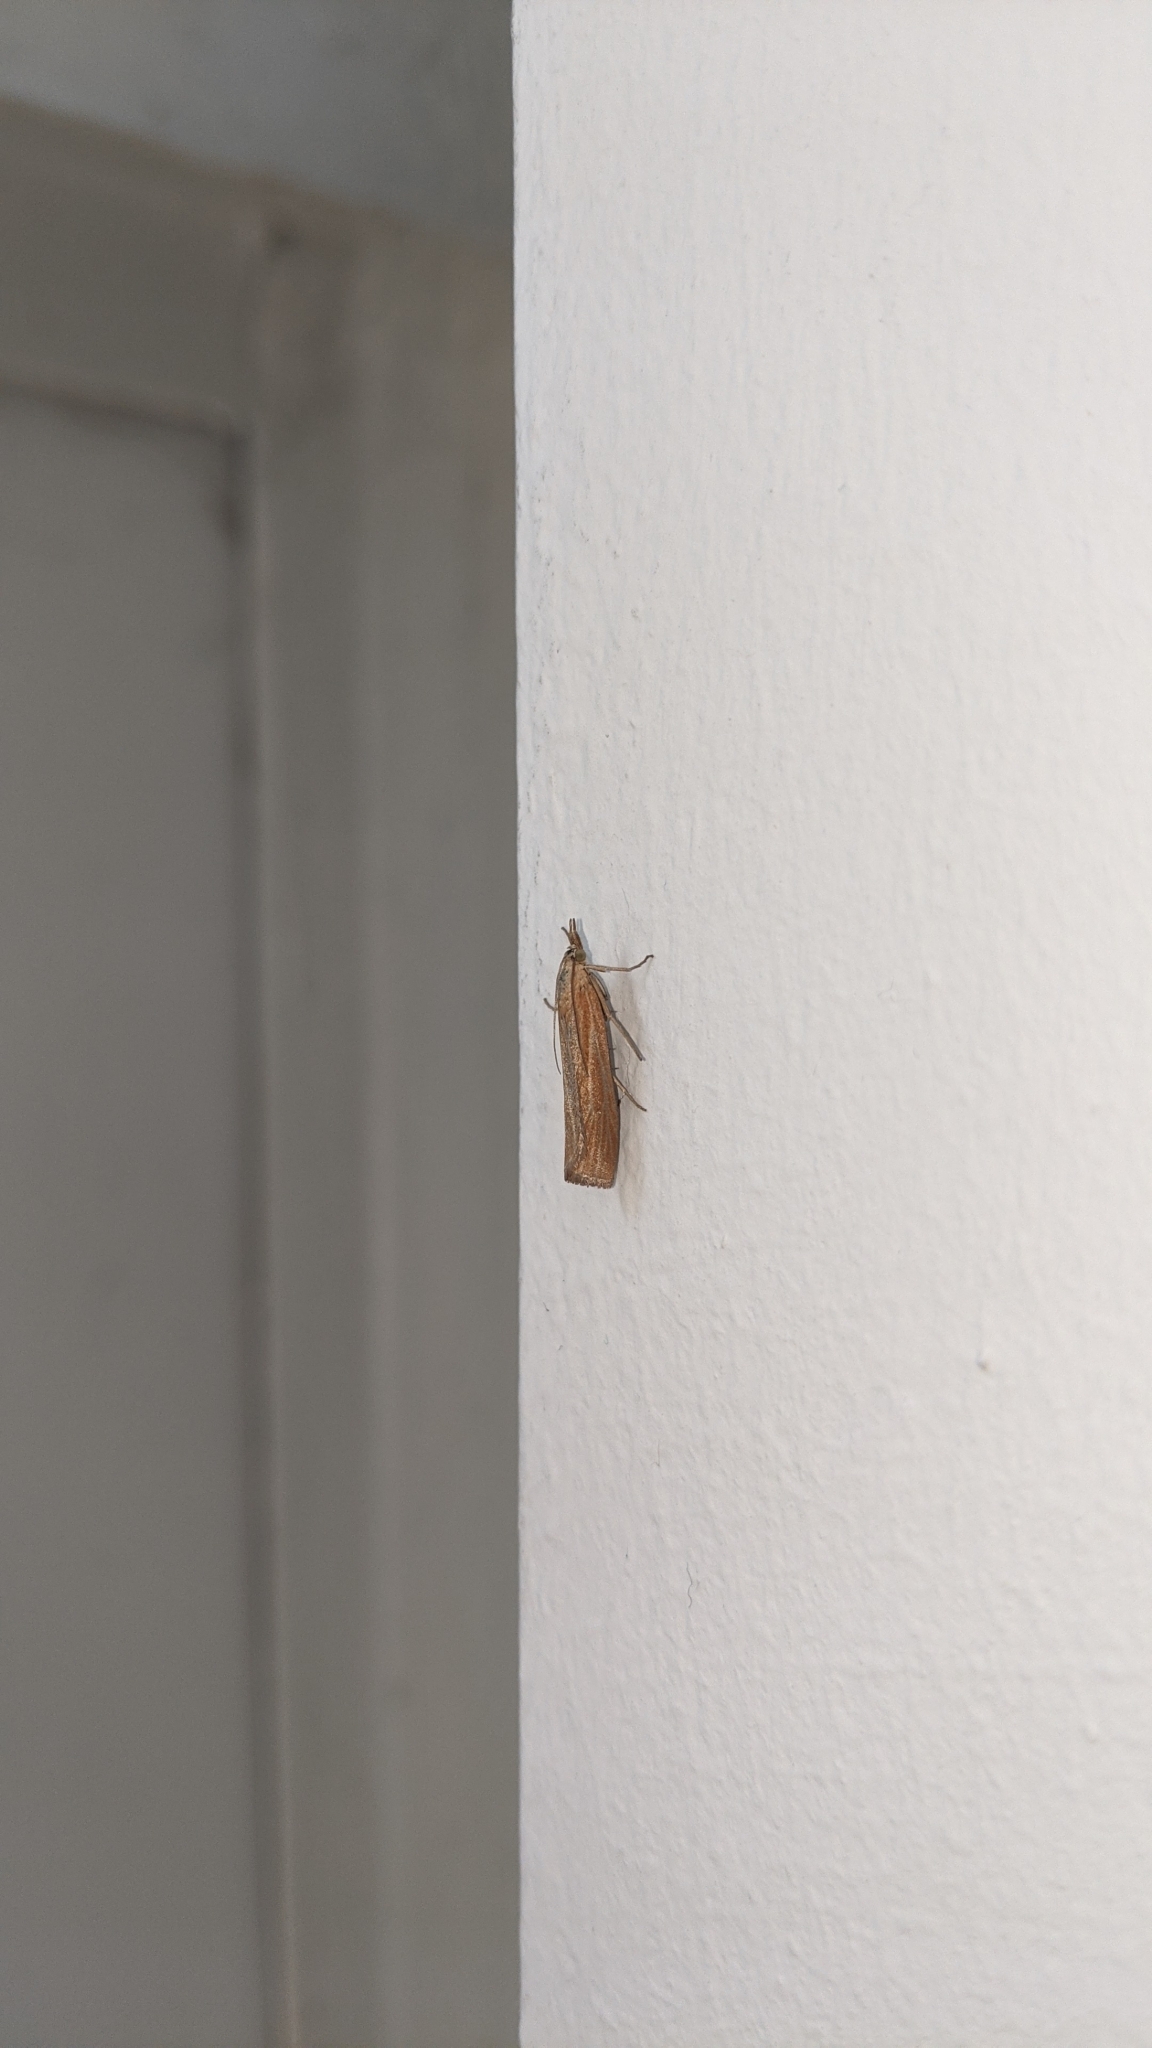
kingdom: Animalia
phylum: Arthropoda
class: Insecta
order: Lepidoptera
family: Crambidae
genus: Pediasia
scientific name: Pediasia luteella
